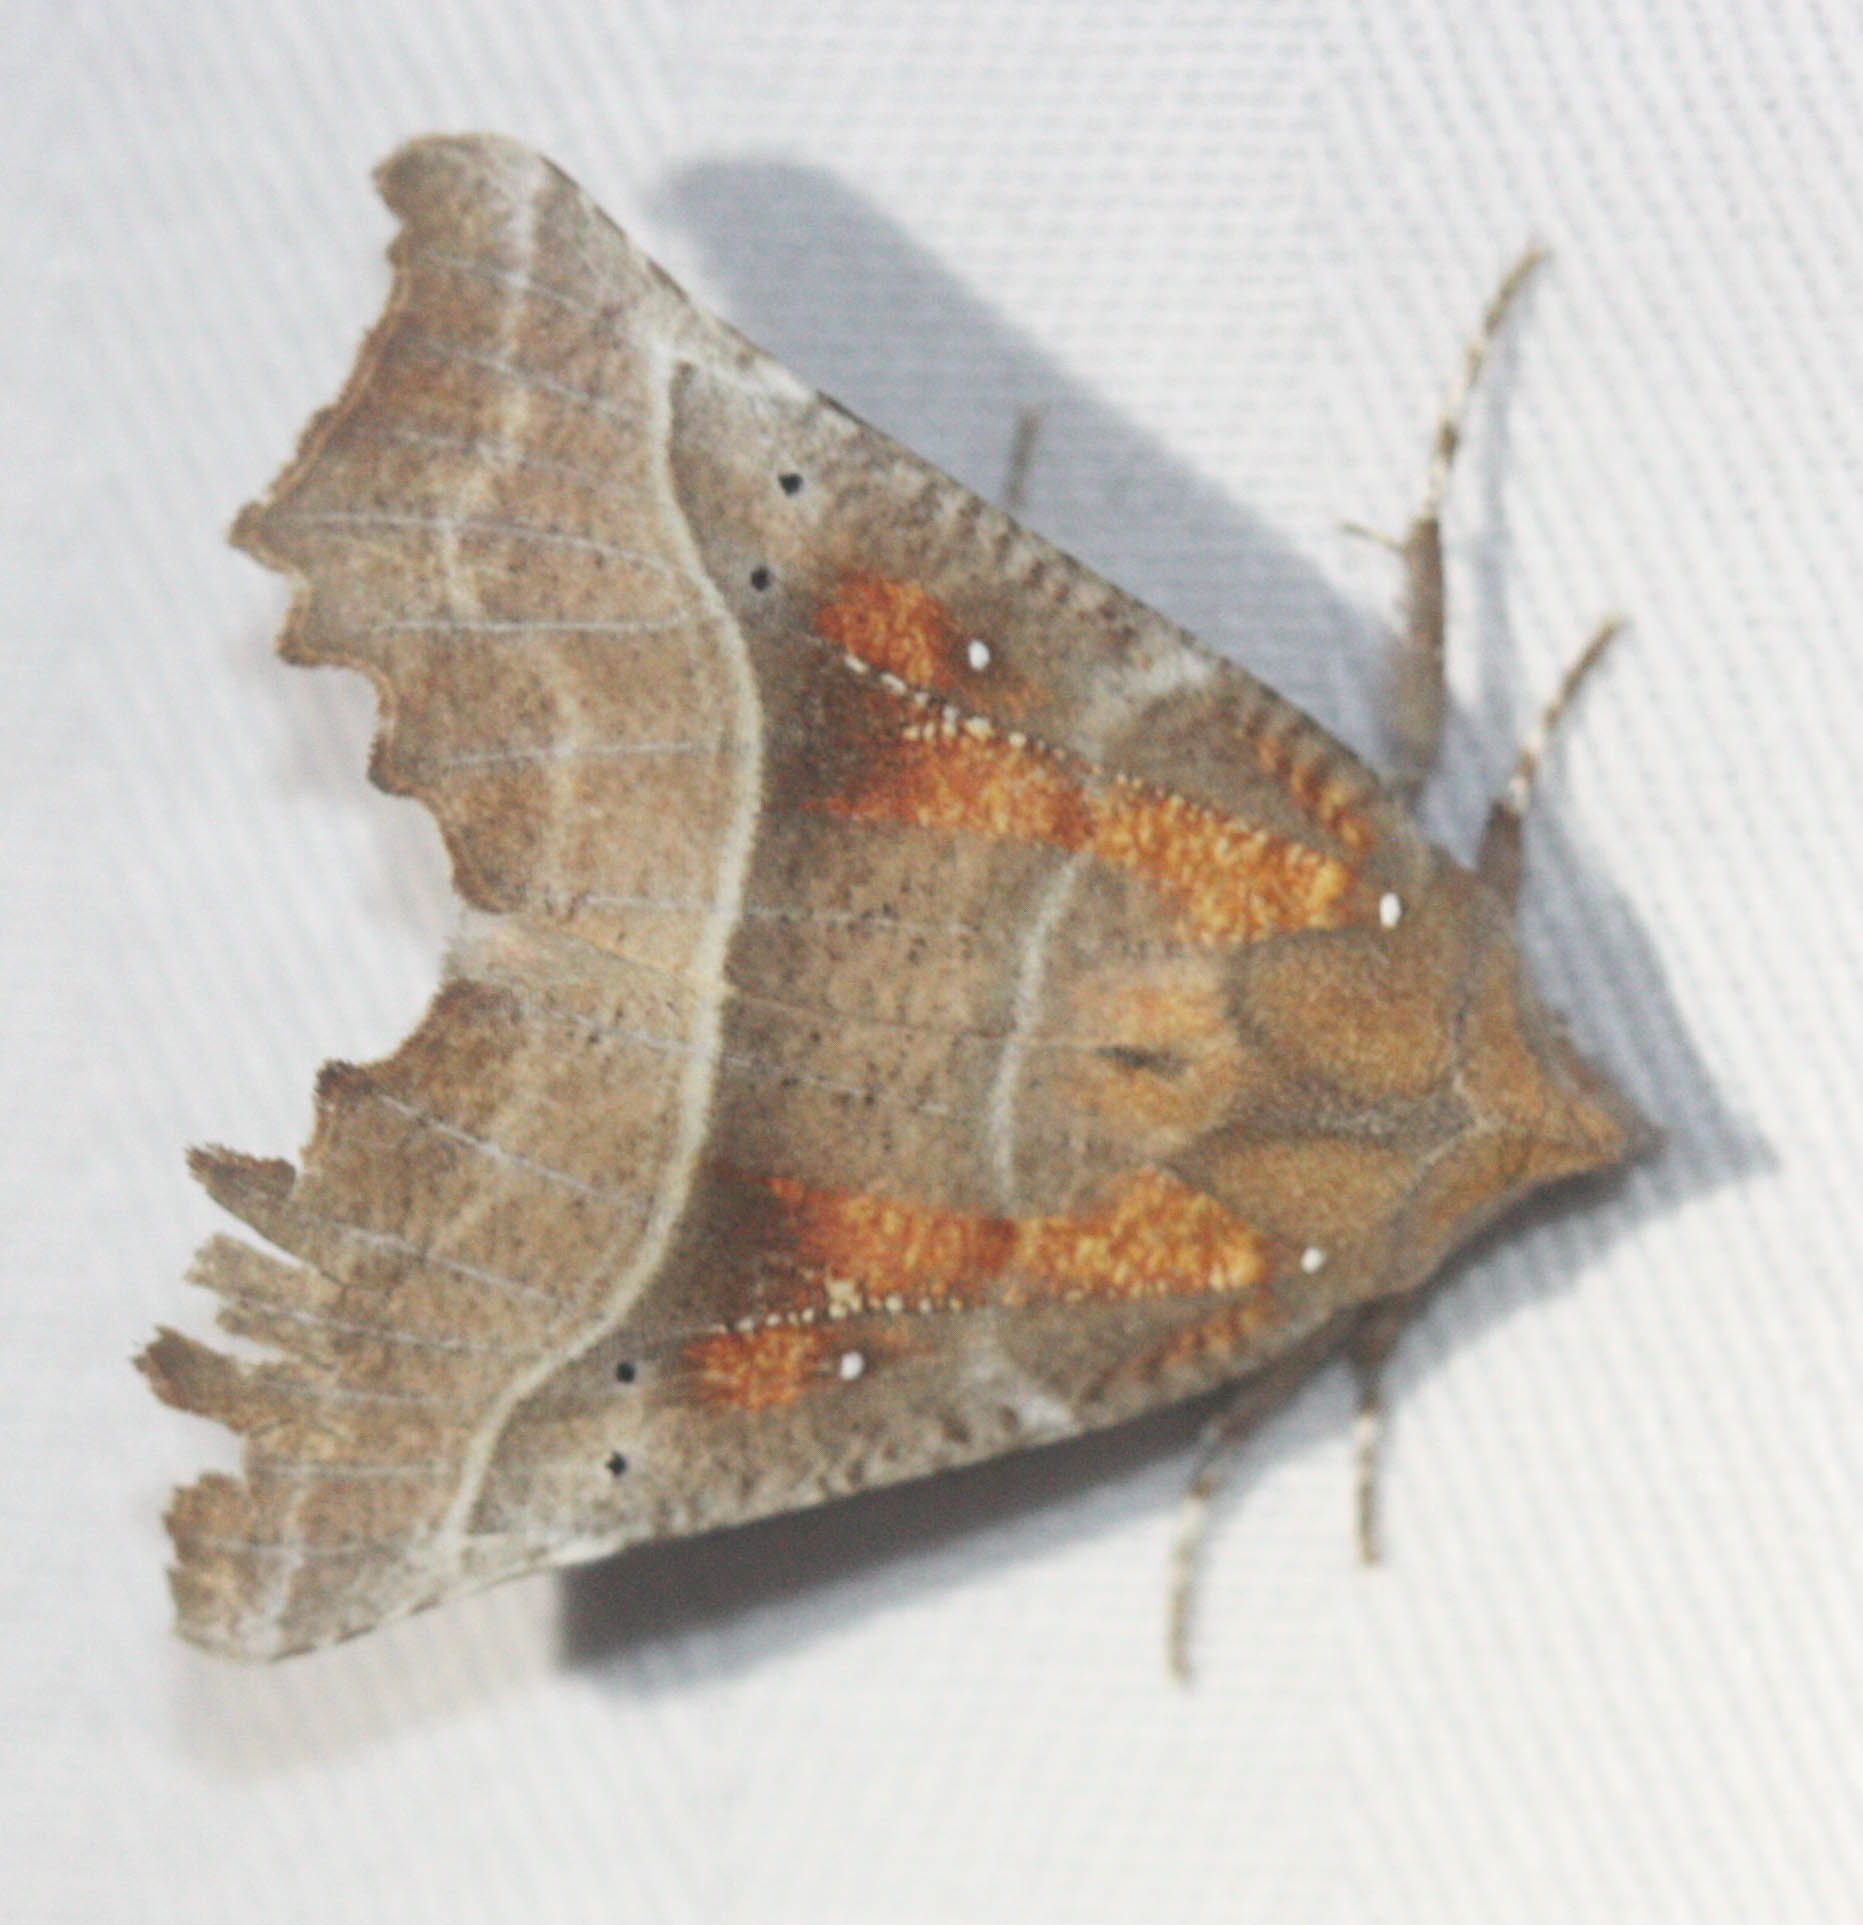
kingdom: Animalia
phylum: Arthropoda
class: Insecta
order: Lepidoptera
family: Erebidae
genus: Scoliopteryx
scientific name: Scoliopteryx libatrix
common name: Herald
